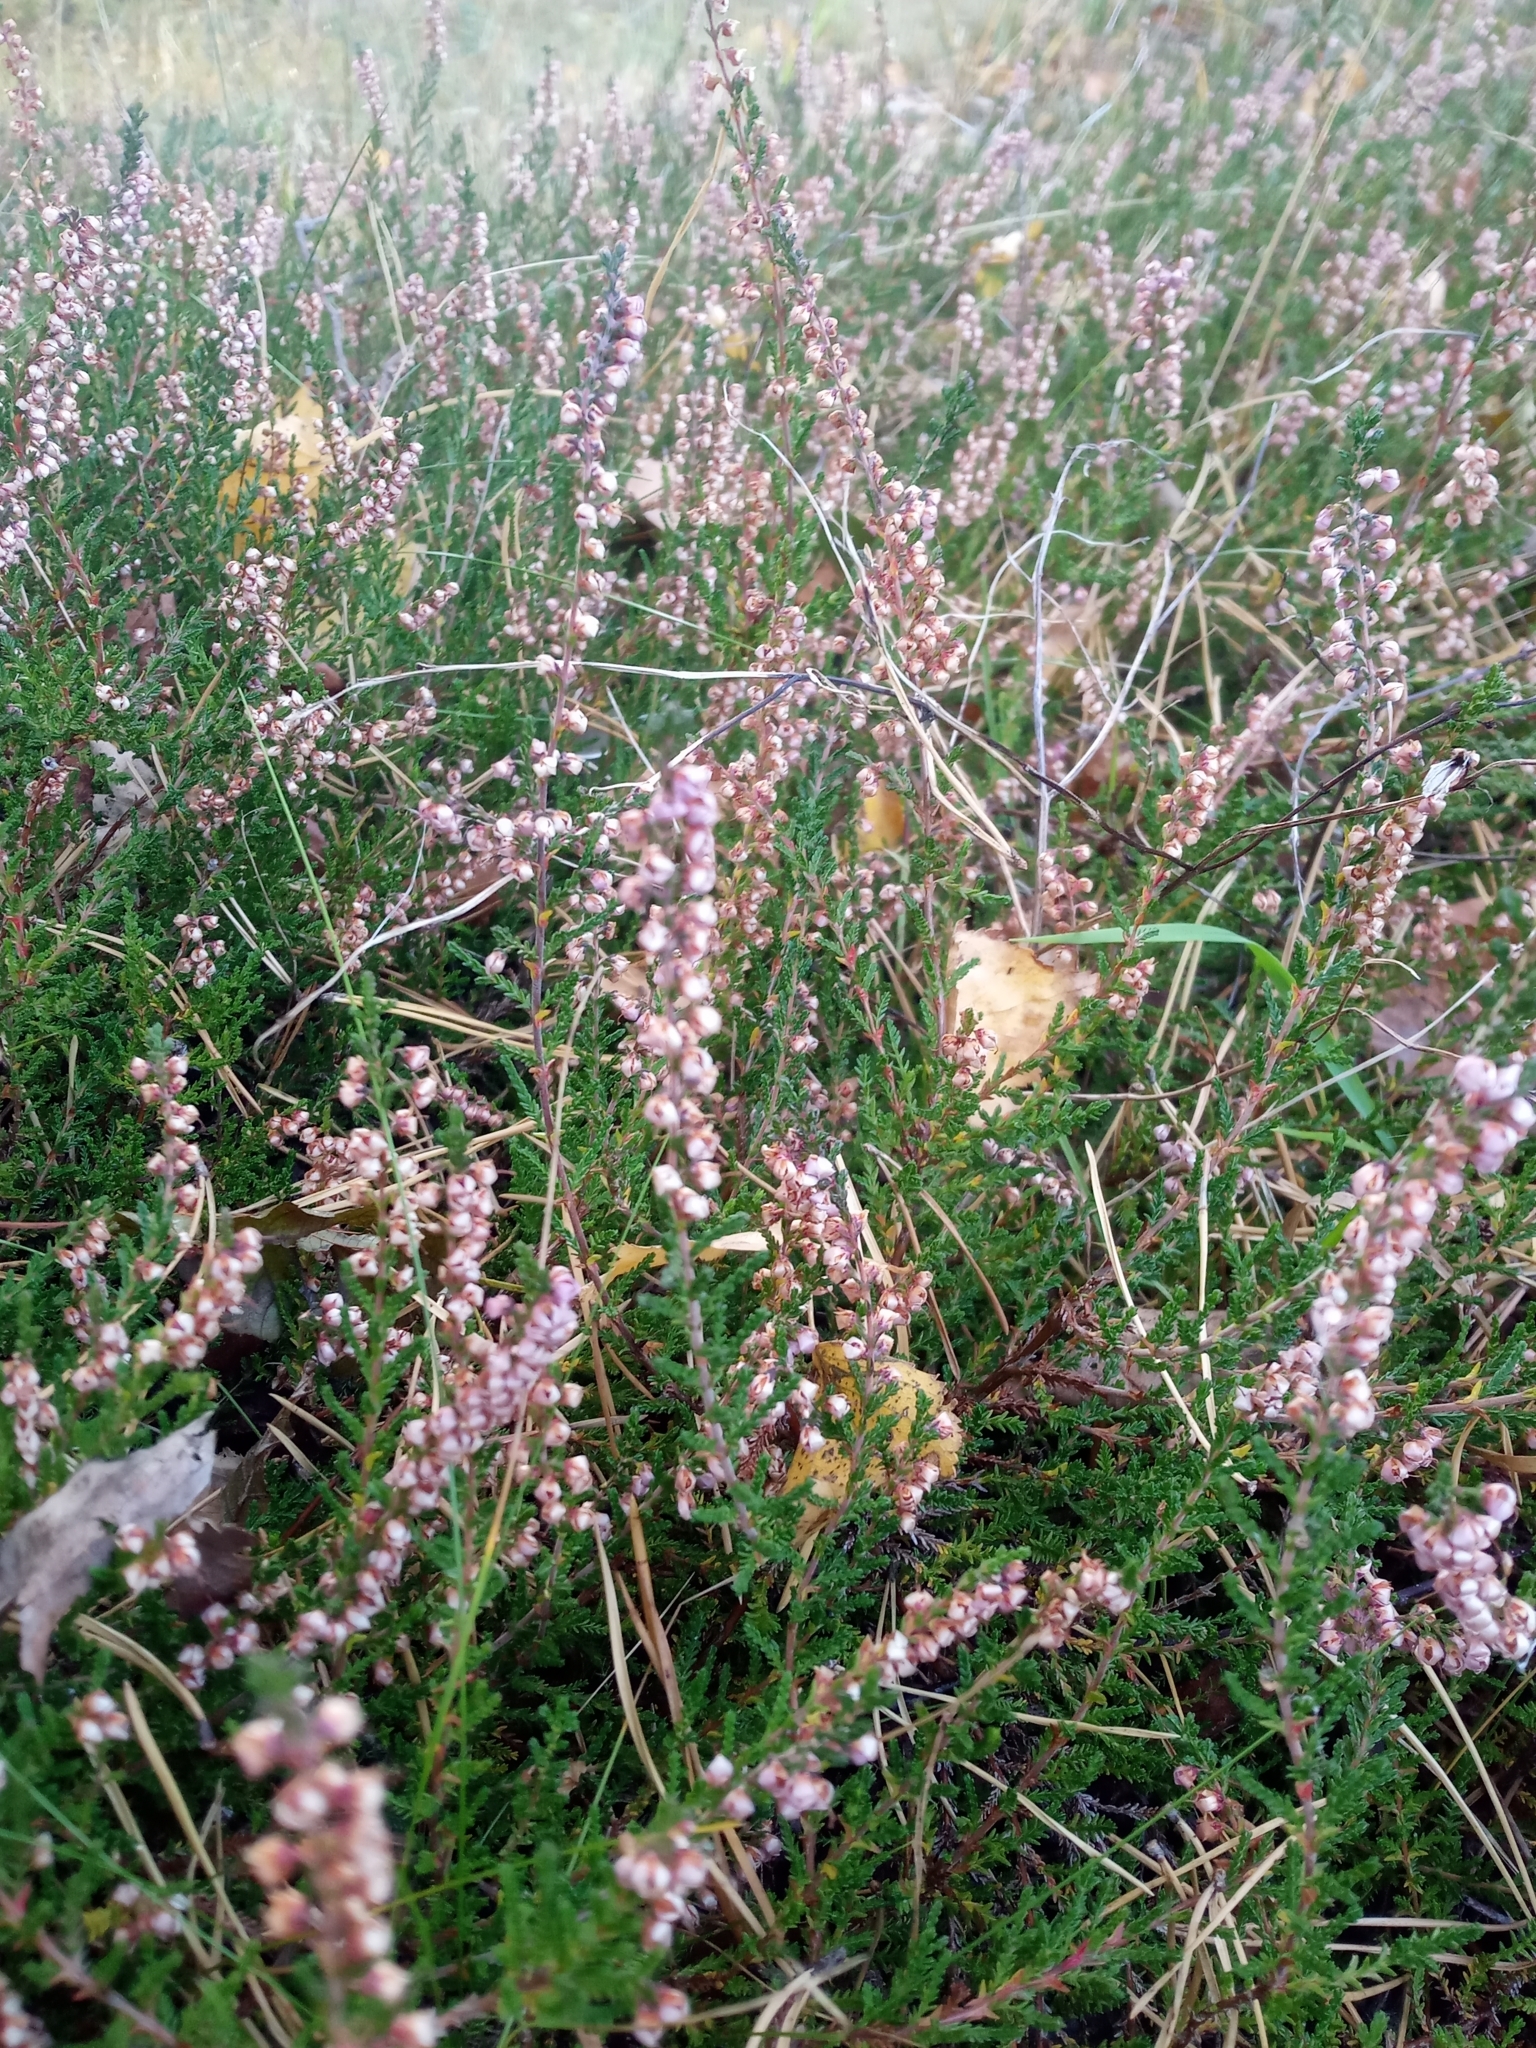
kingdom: Plantae
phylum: Tracheophyta
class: Magnoliopsida
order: Ericales
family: Ericaceae
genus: Calluna
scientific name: Calluna vulgaris
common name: Heather
